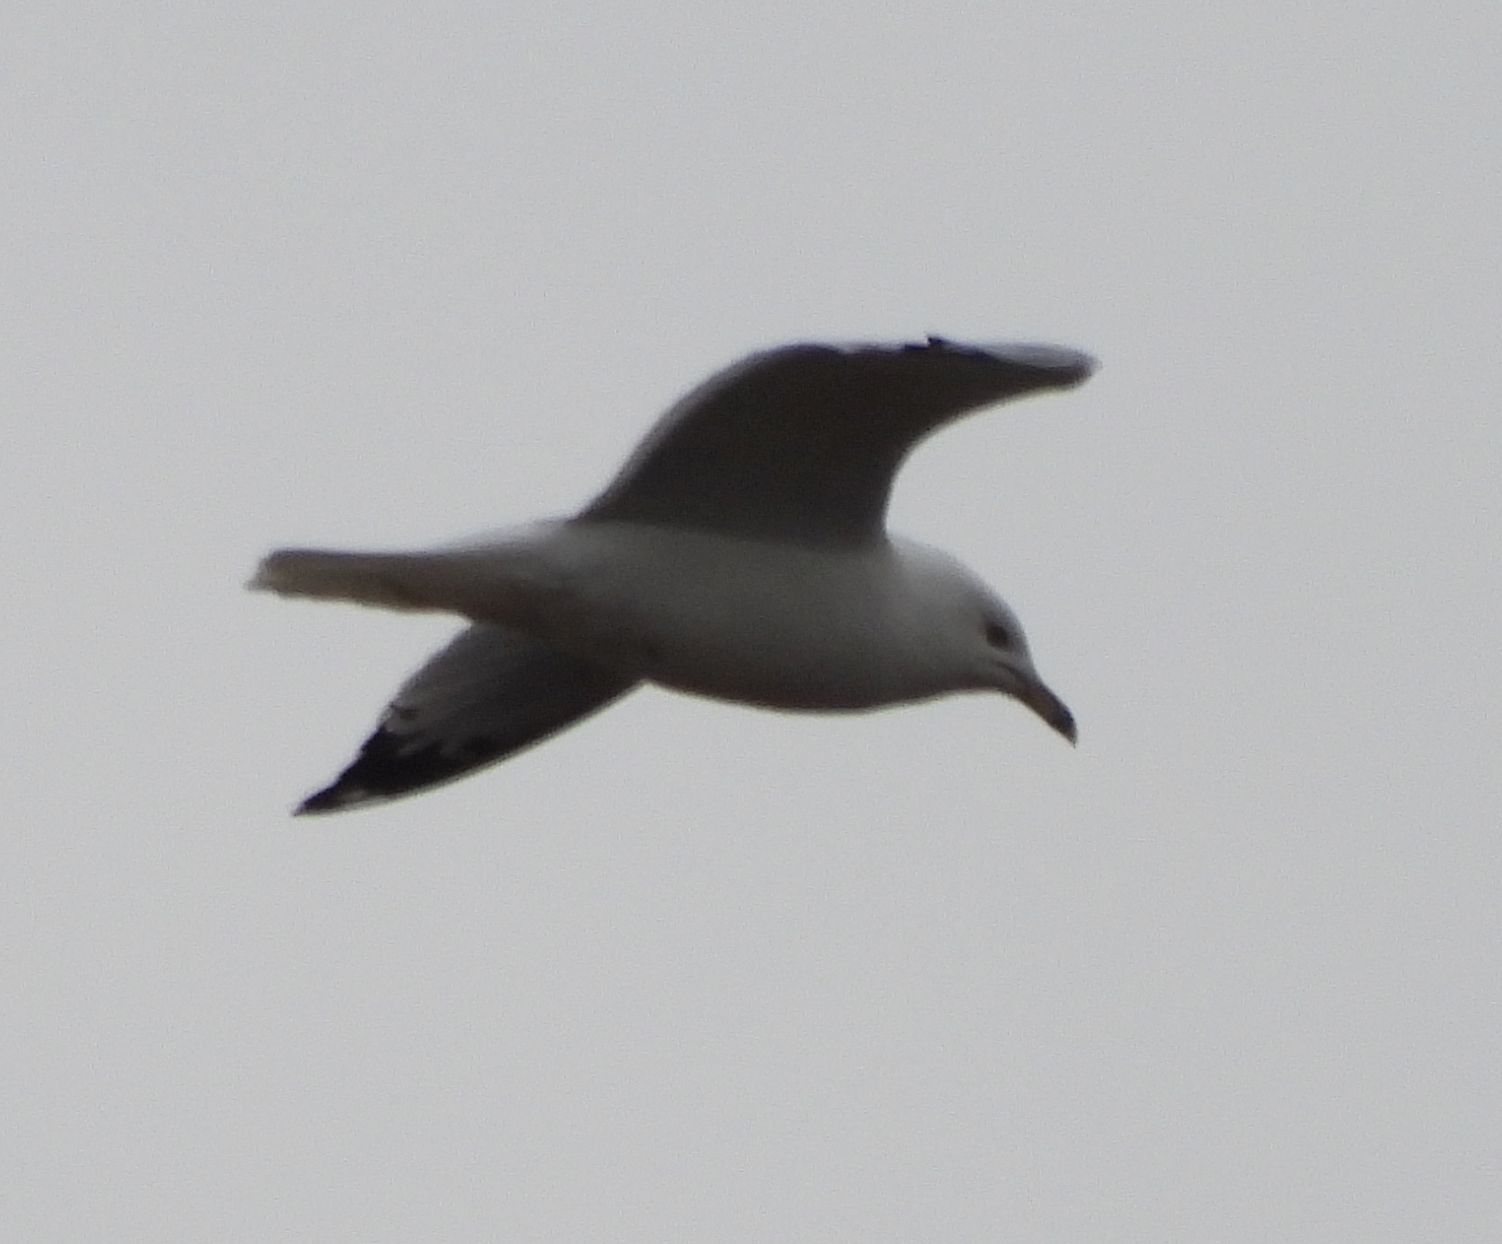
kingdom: Animalia
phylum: Chordata
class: Aves
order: Charadriiformes
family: Laridae
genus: Larus
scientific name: Larus delawarensis
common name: Ring-billed gull
